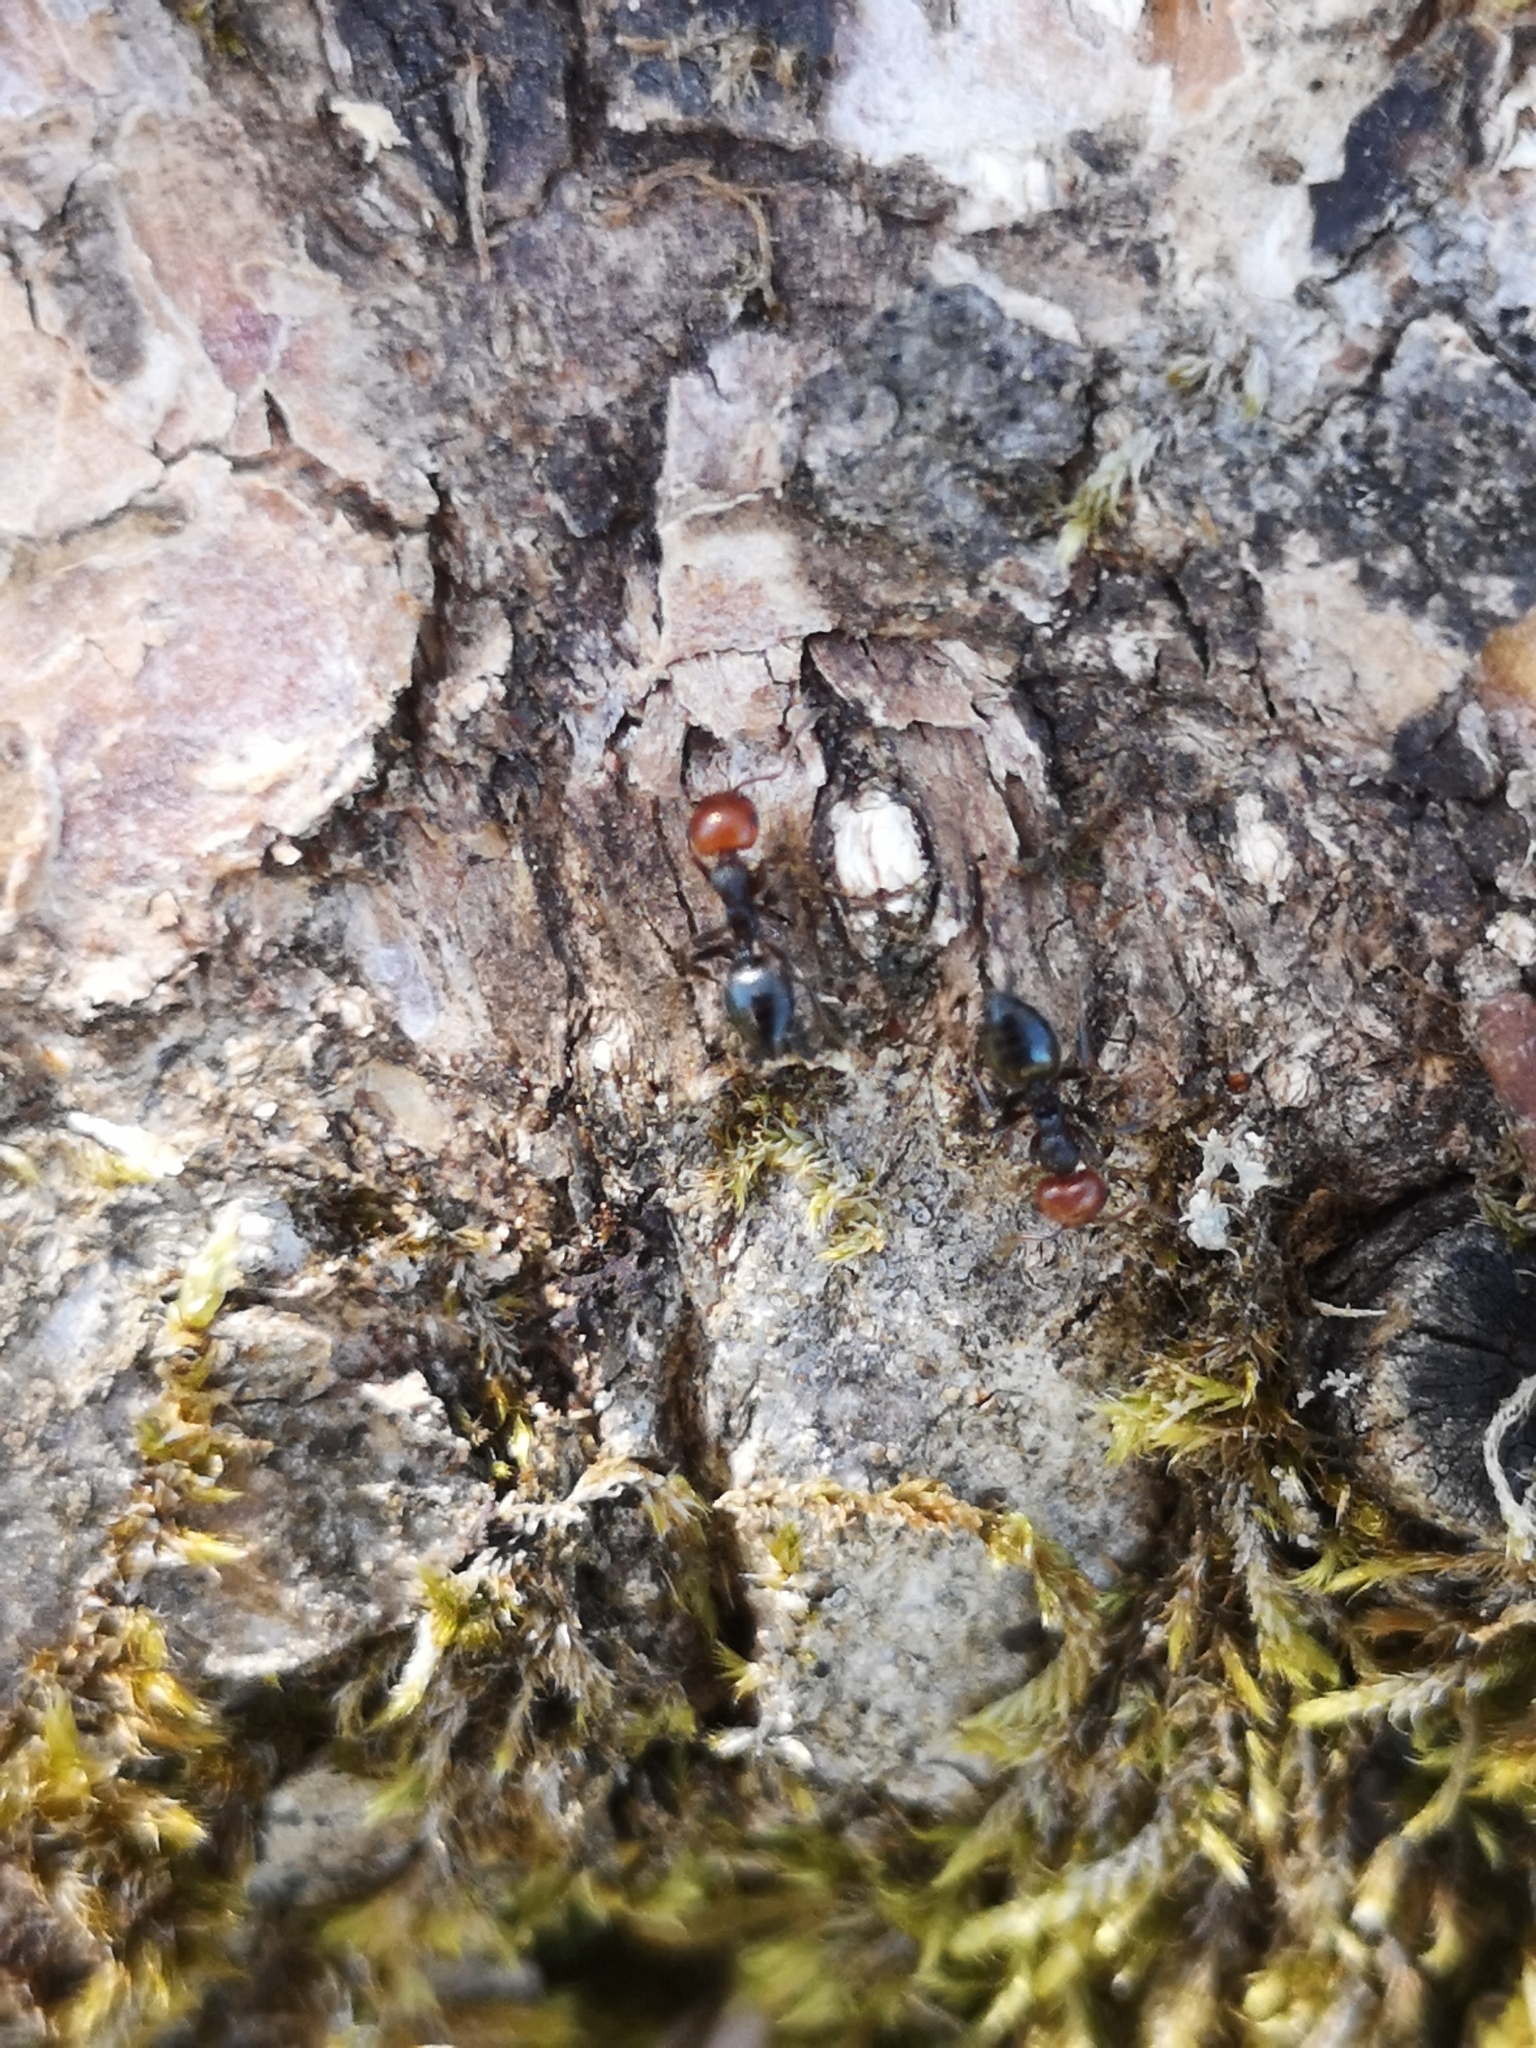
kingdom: Animalia
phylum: Arthropoda
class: Insecta
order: Hymenoptera
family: Formicidae
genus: Crematogaster
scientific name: Crematogaster scutellaris
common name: Fourmi du liège
